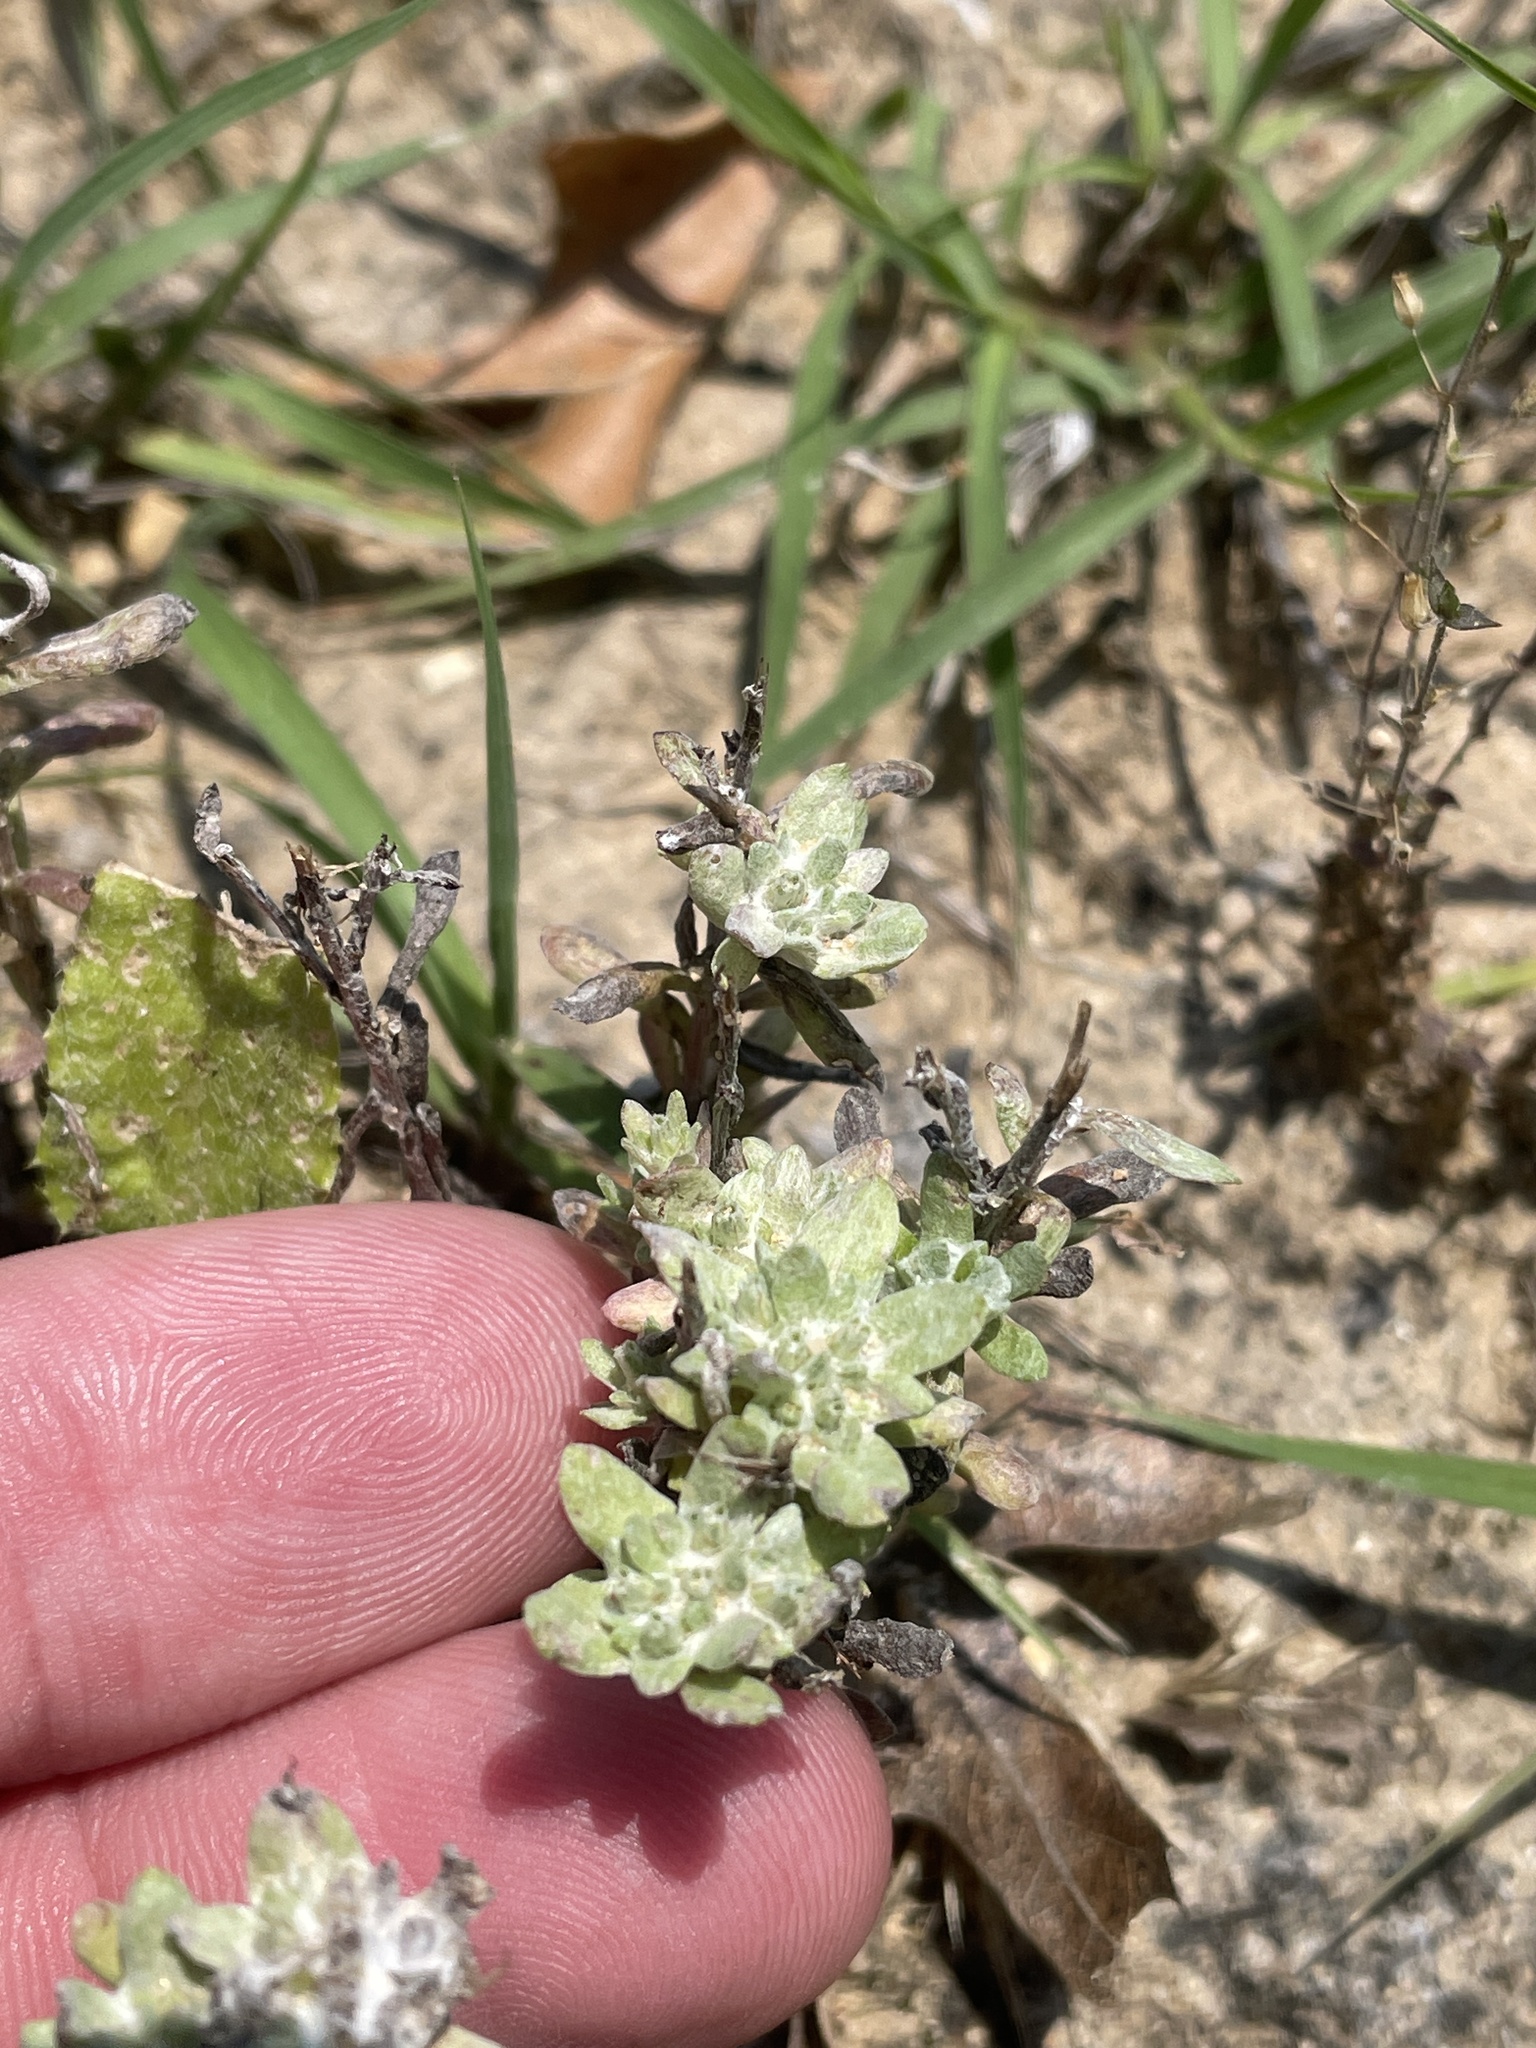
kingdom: Plantae
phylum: Tracheophyta
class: Magnoliopsida
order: Asterales
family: Asteraceae
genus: Diaperia
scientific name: Diaperia prolifera
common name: Big-head rabbit-tobacco
